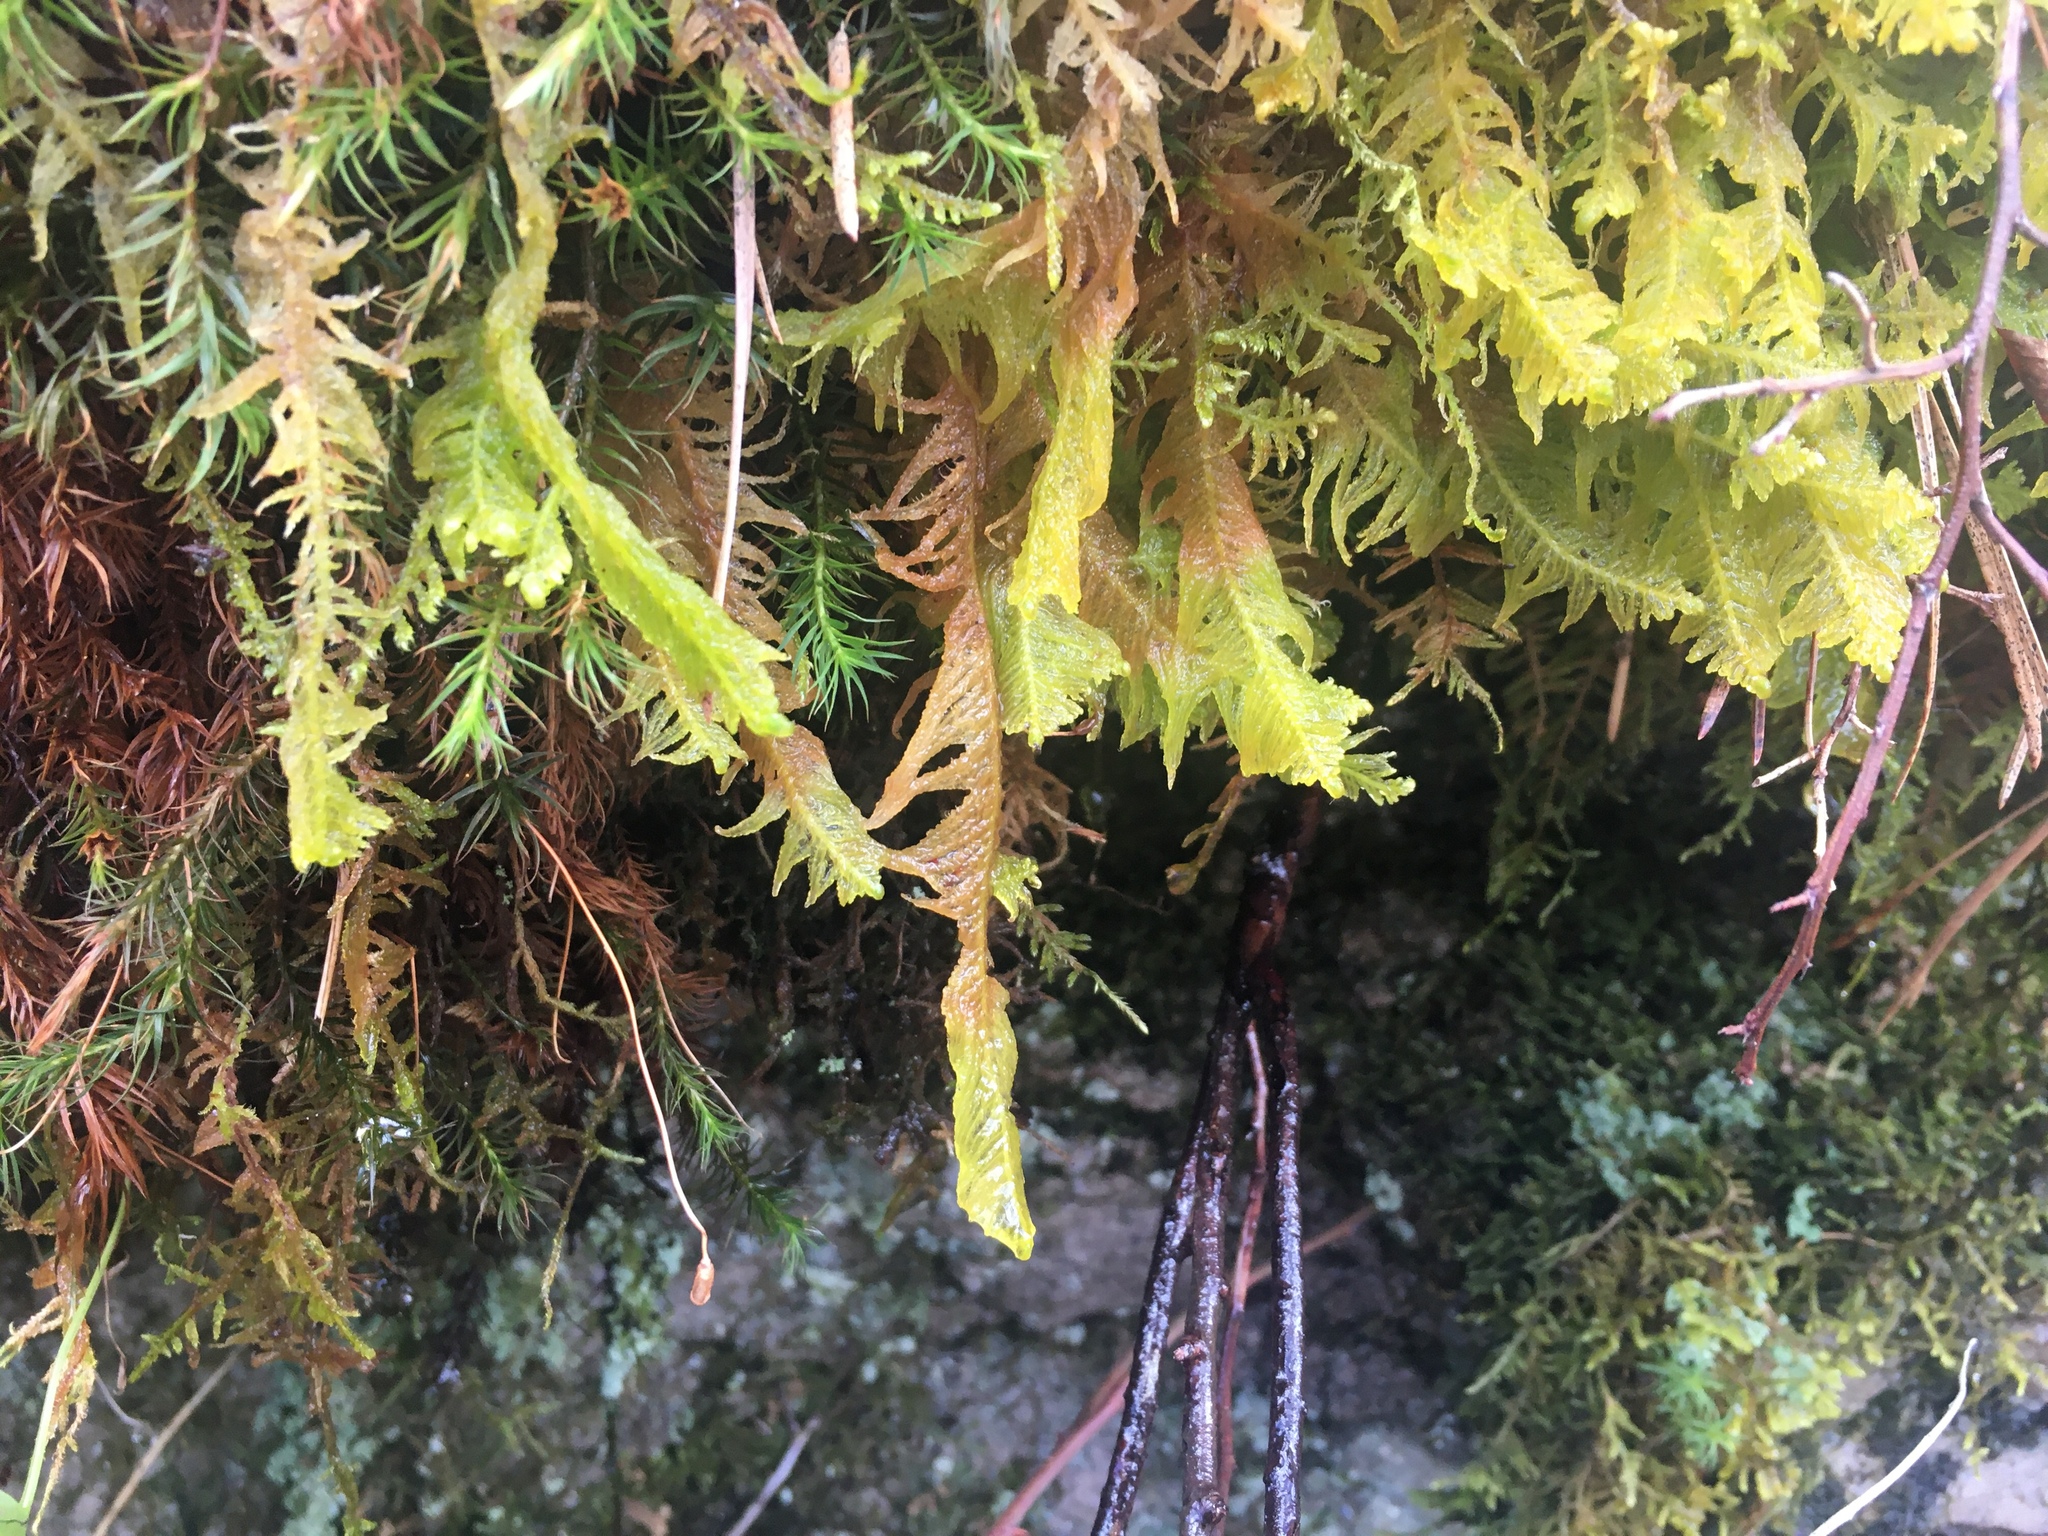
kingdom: Plantae
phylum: Bryophyta
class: Bryopsida
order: Hypnales
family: Pylaisiaceae
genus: Ptilium
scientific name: Ptilium crista-castrensis
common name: Knight's plume moss
